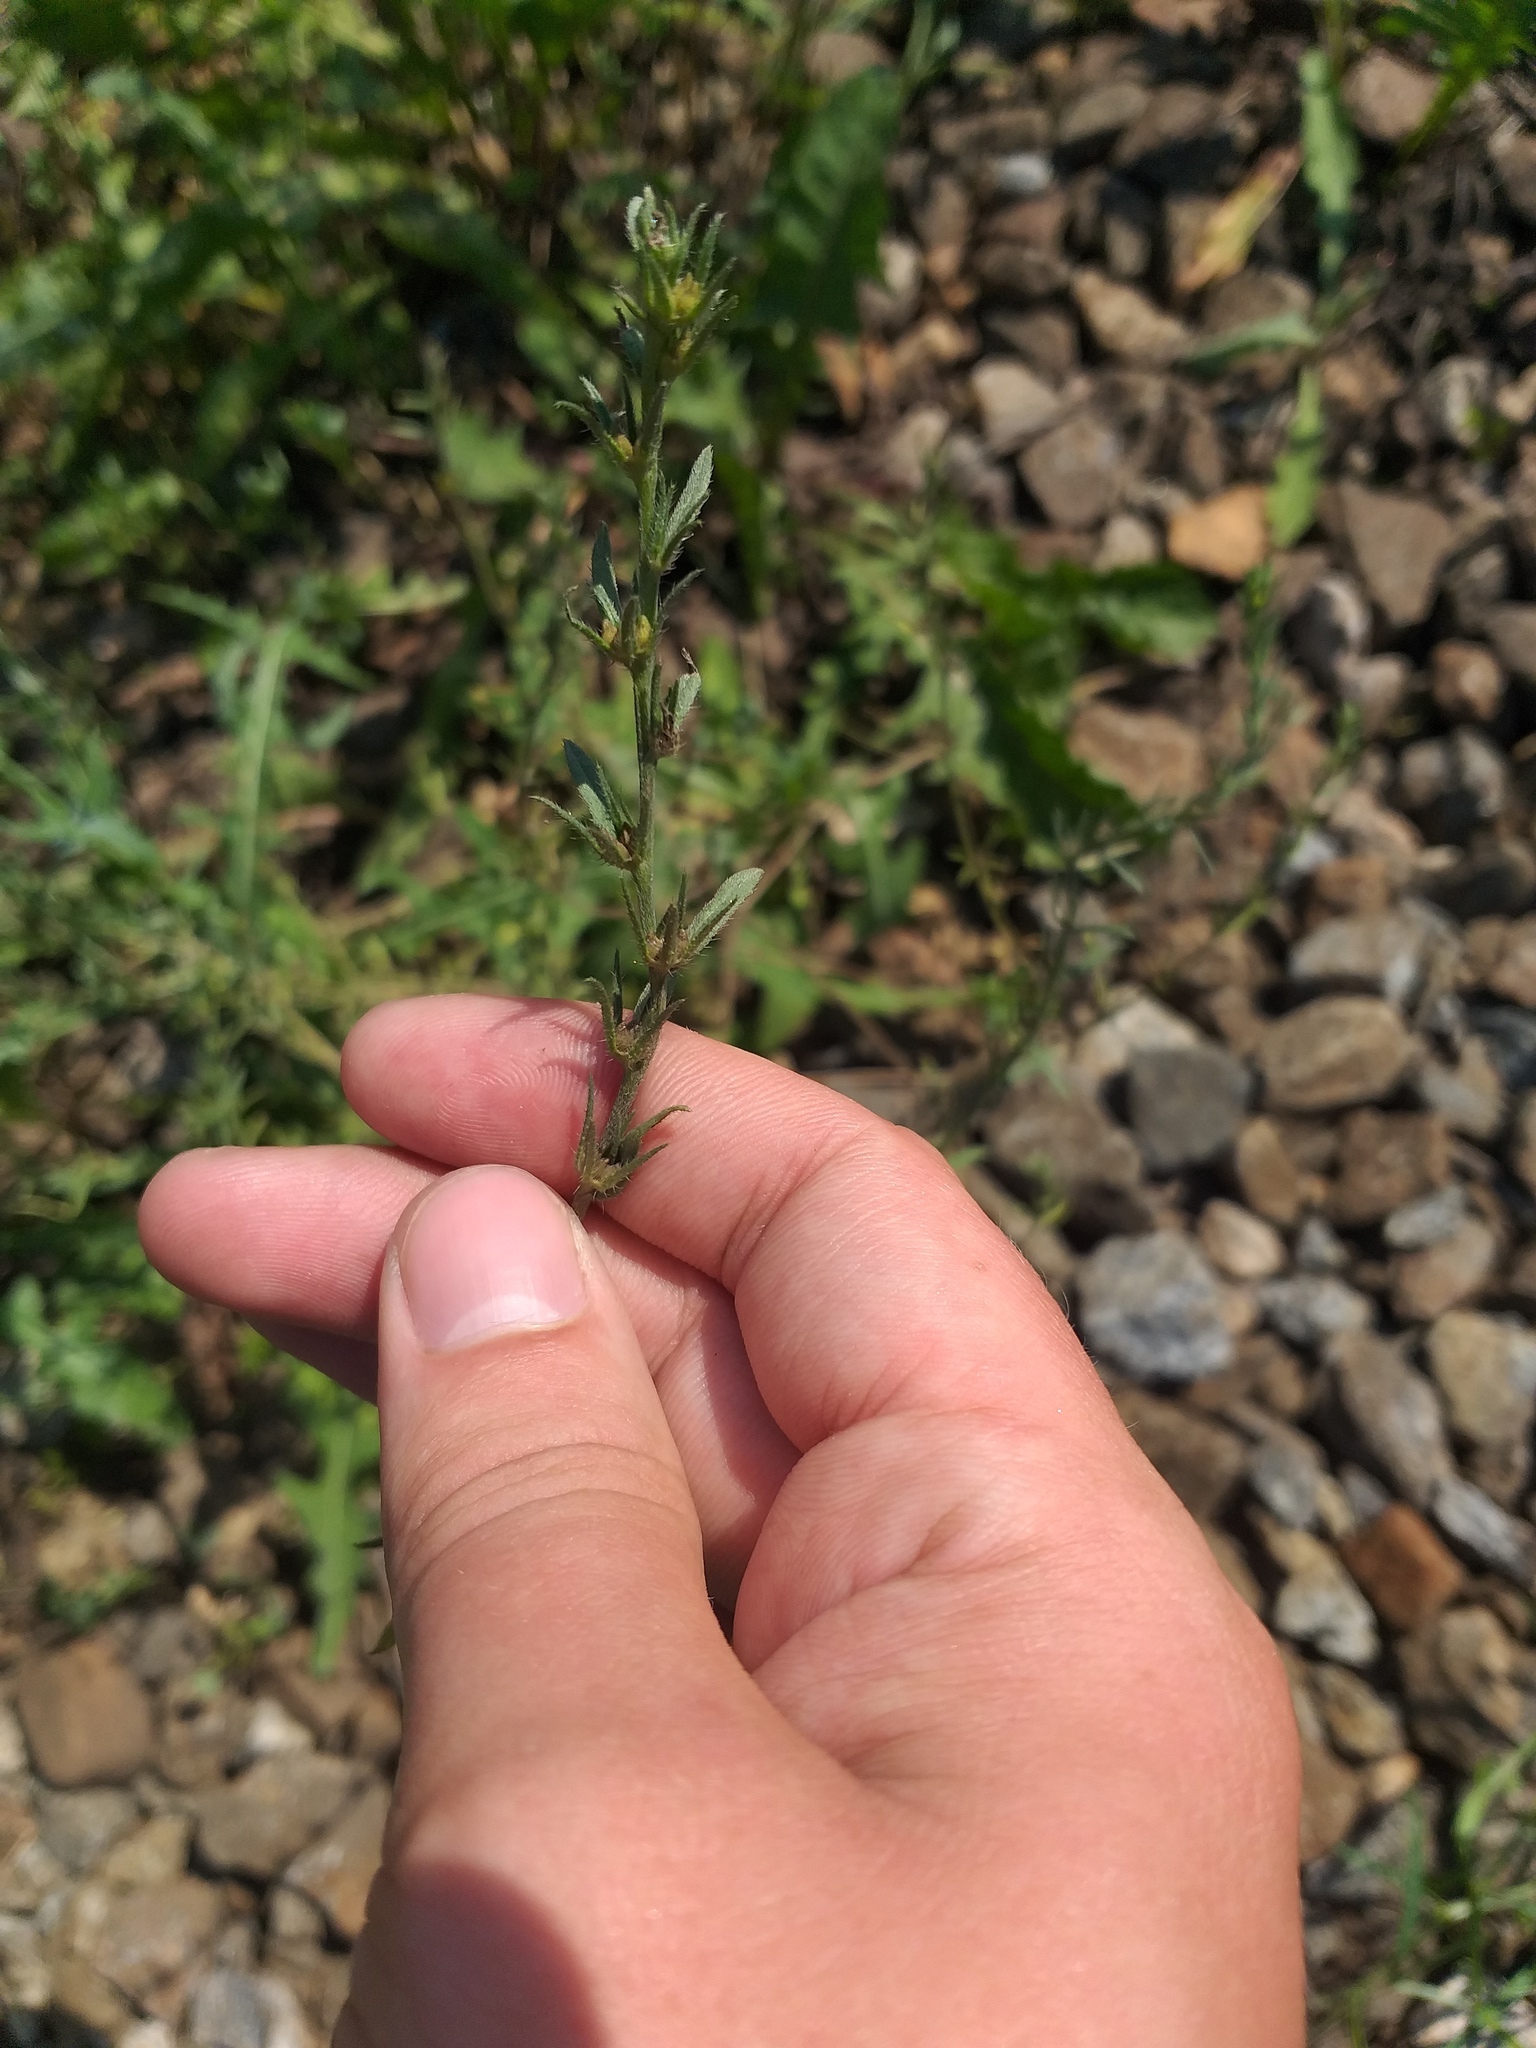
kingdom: Plantae
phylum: Tracheophyta
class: Magnoliopsida
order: Boraginales
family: Boraginaceae
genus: Buglossoides
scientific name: Buglossoides arvensis
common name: Corn gromwell
